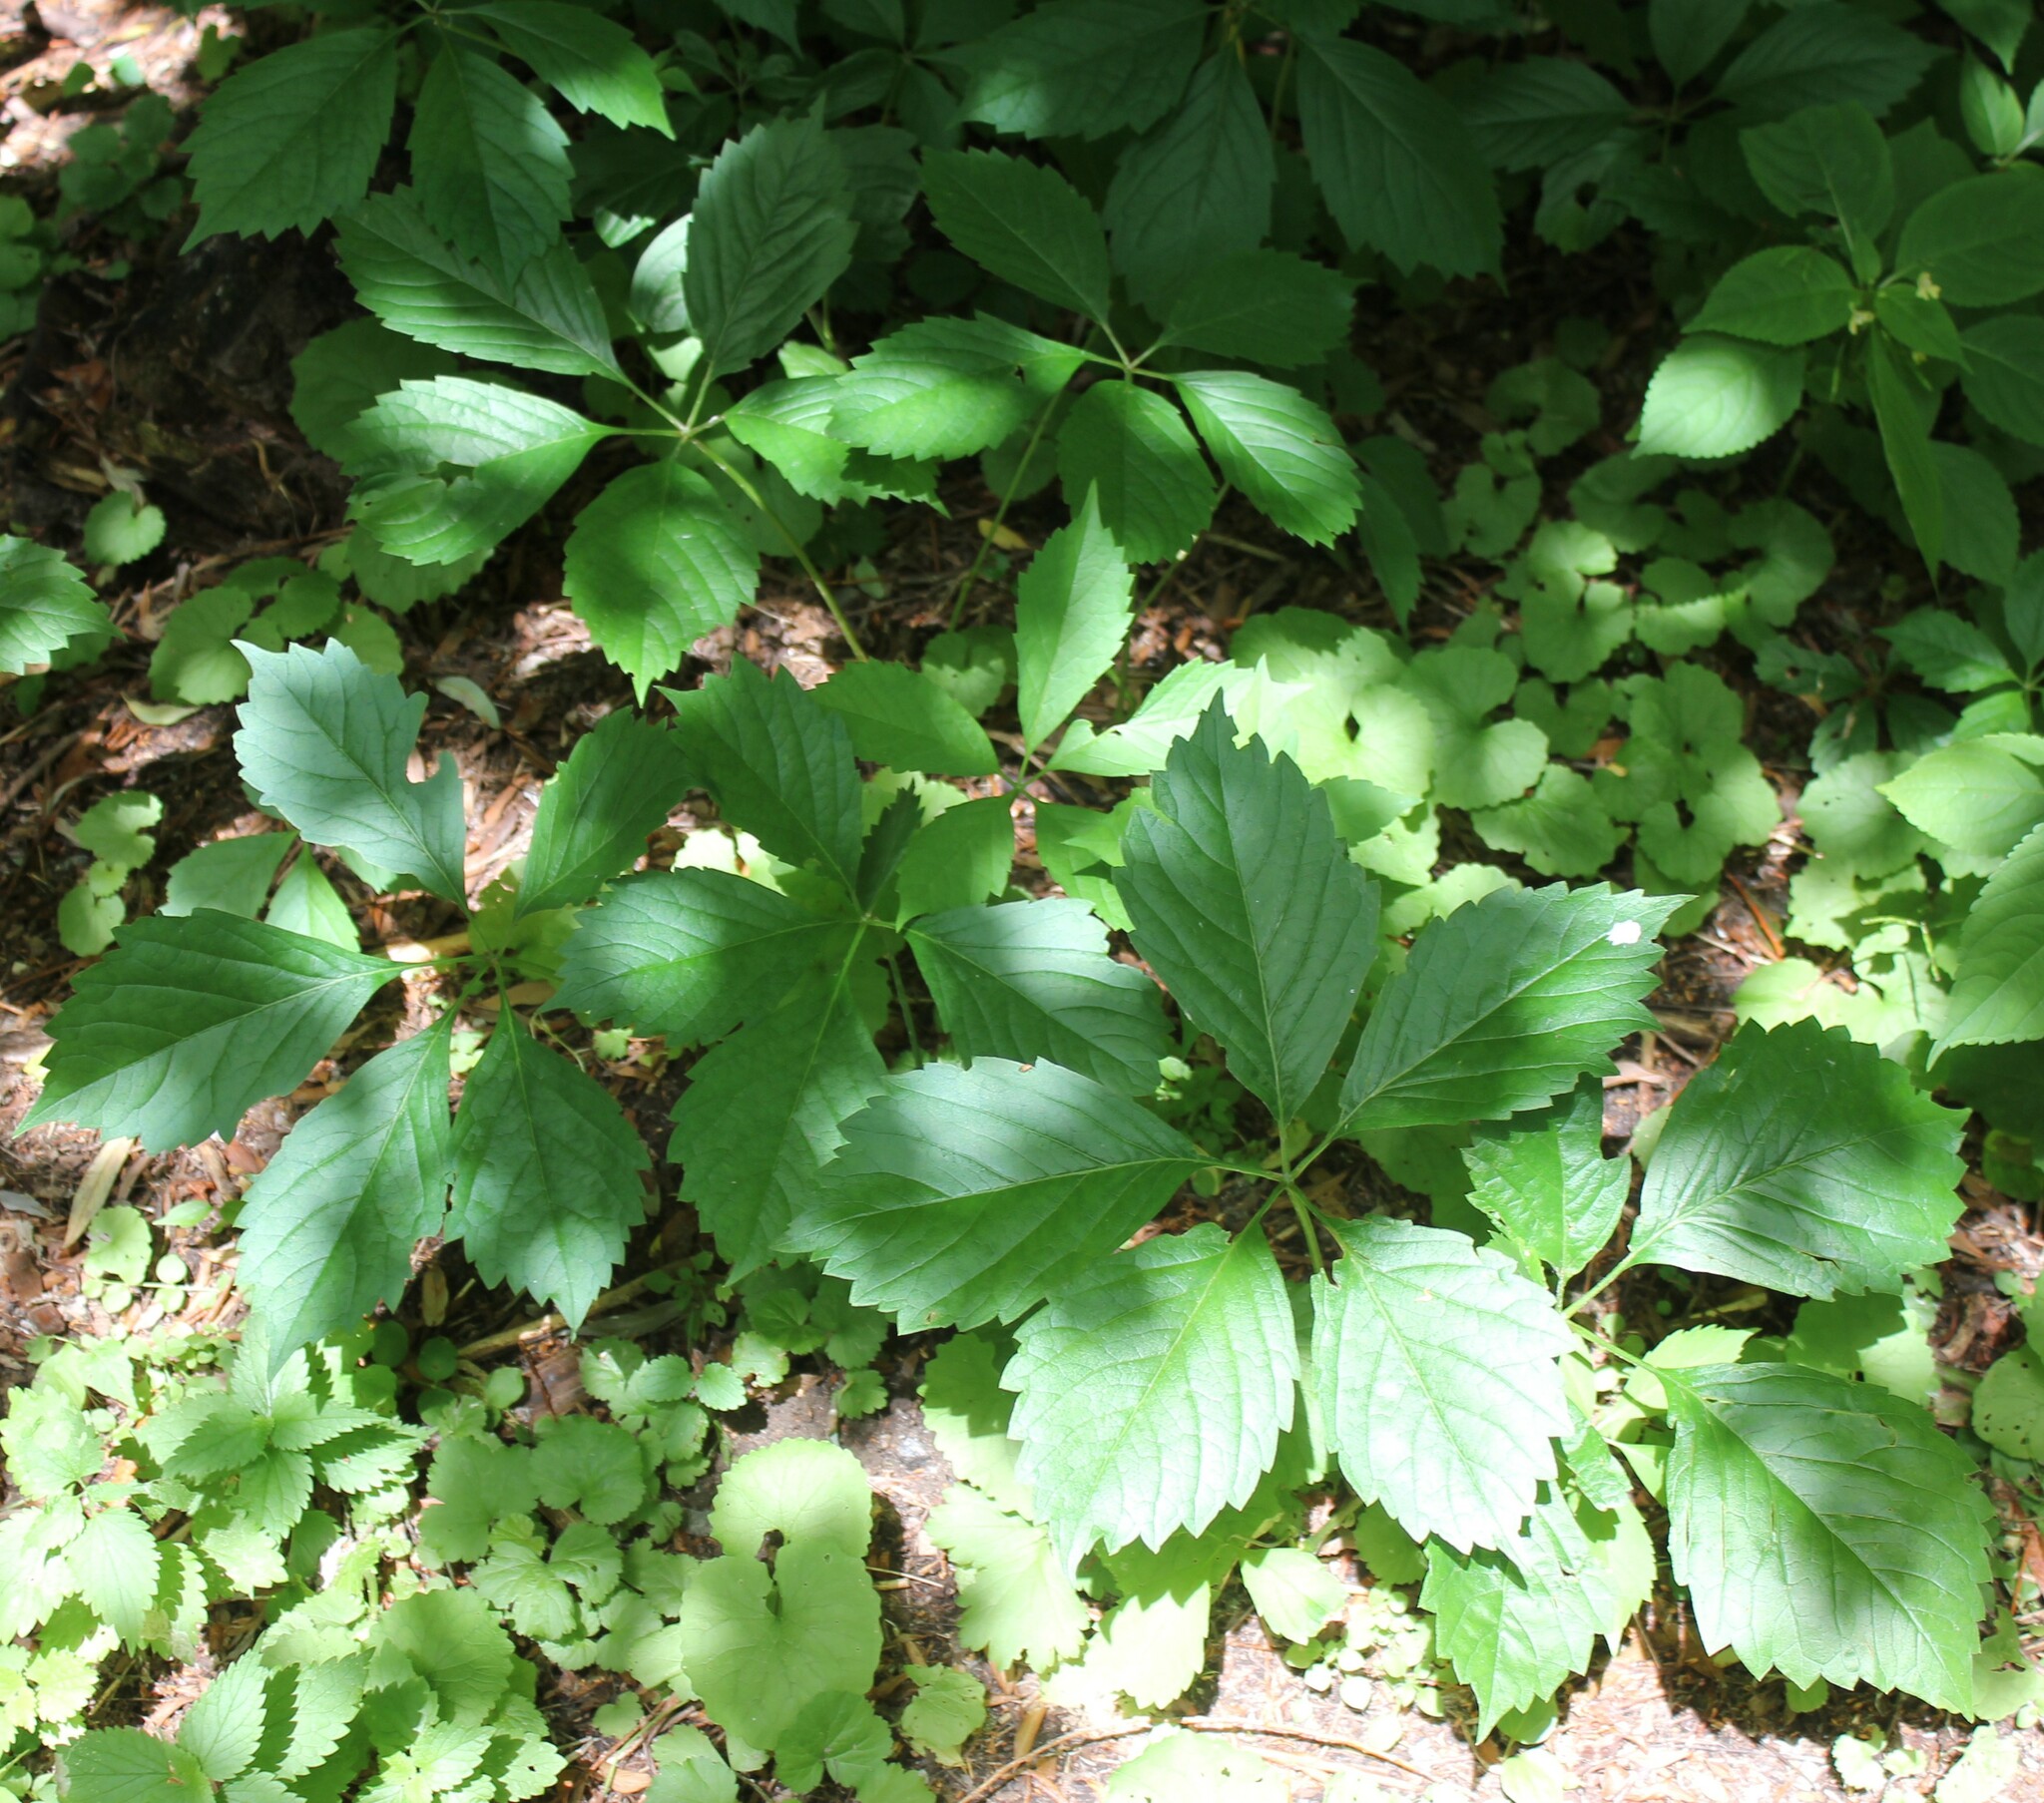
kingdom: Plantae
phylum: Tracheophyta
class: Magnoliopsida
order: Vitales
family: Vitaceae
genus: Parthenocissus
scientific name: Parthenocissus inserta
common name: False virginia-creeper
